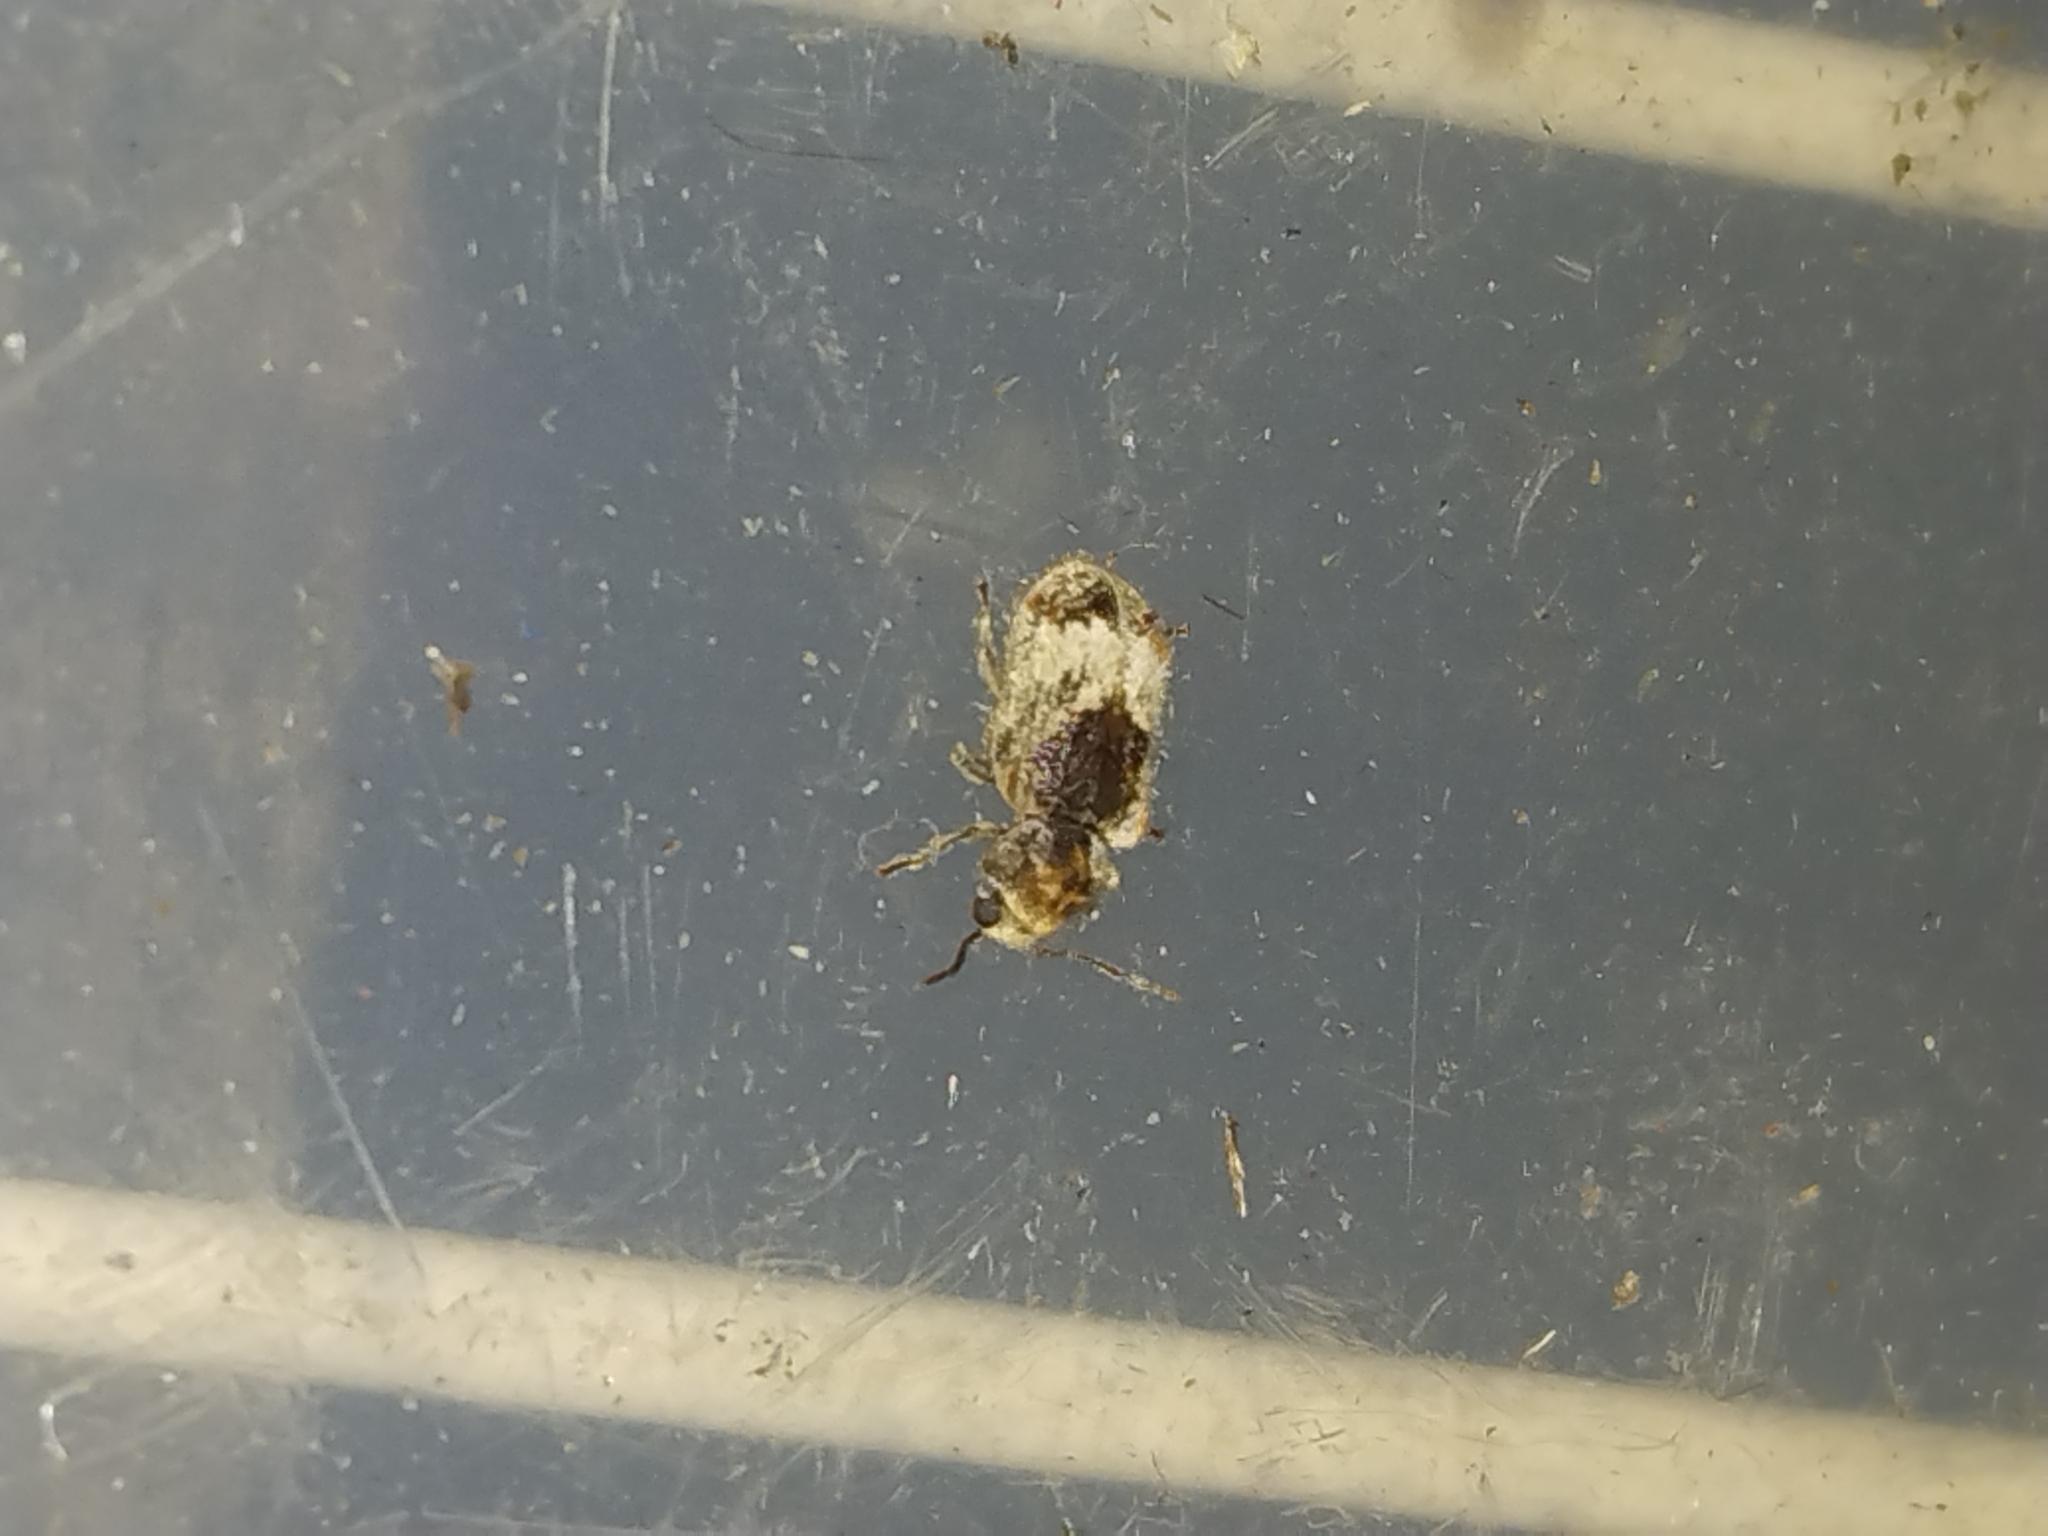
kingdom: Animalia
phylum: Arthropoda
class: Insecta
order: Coleoptera
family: Anobiidae
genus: Trichodesma
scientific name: Trichodesma gibbosa
